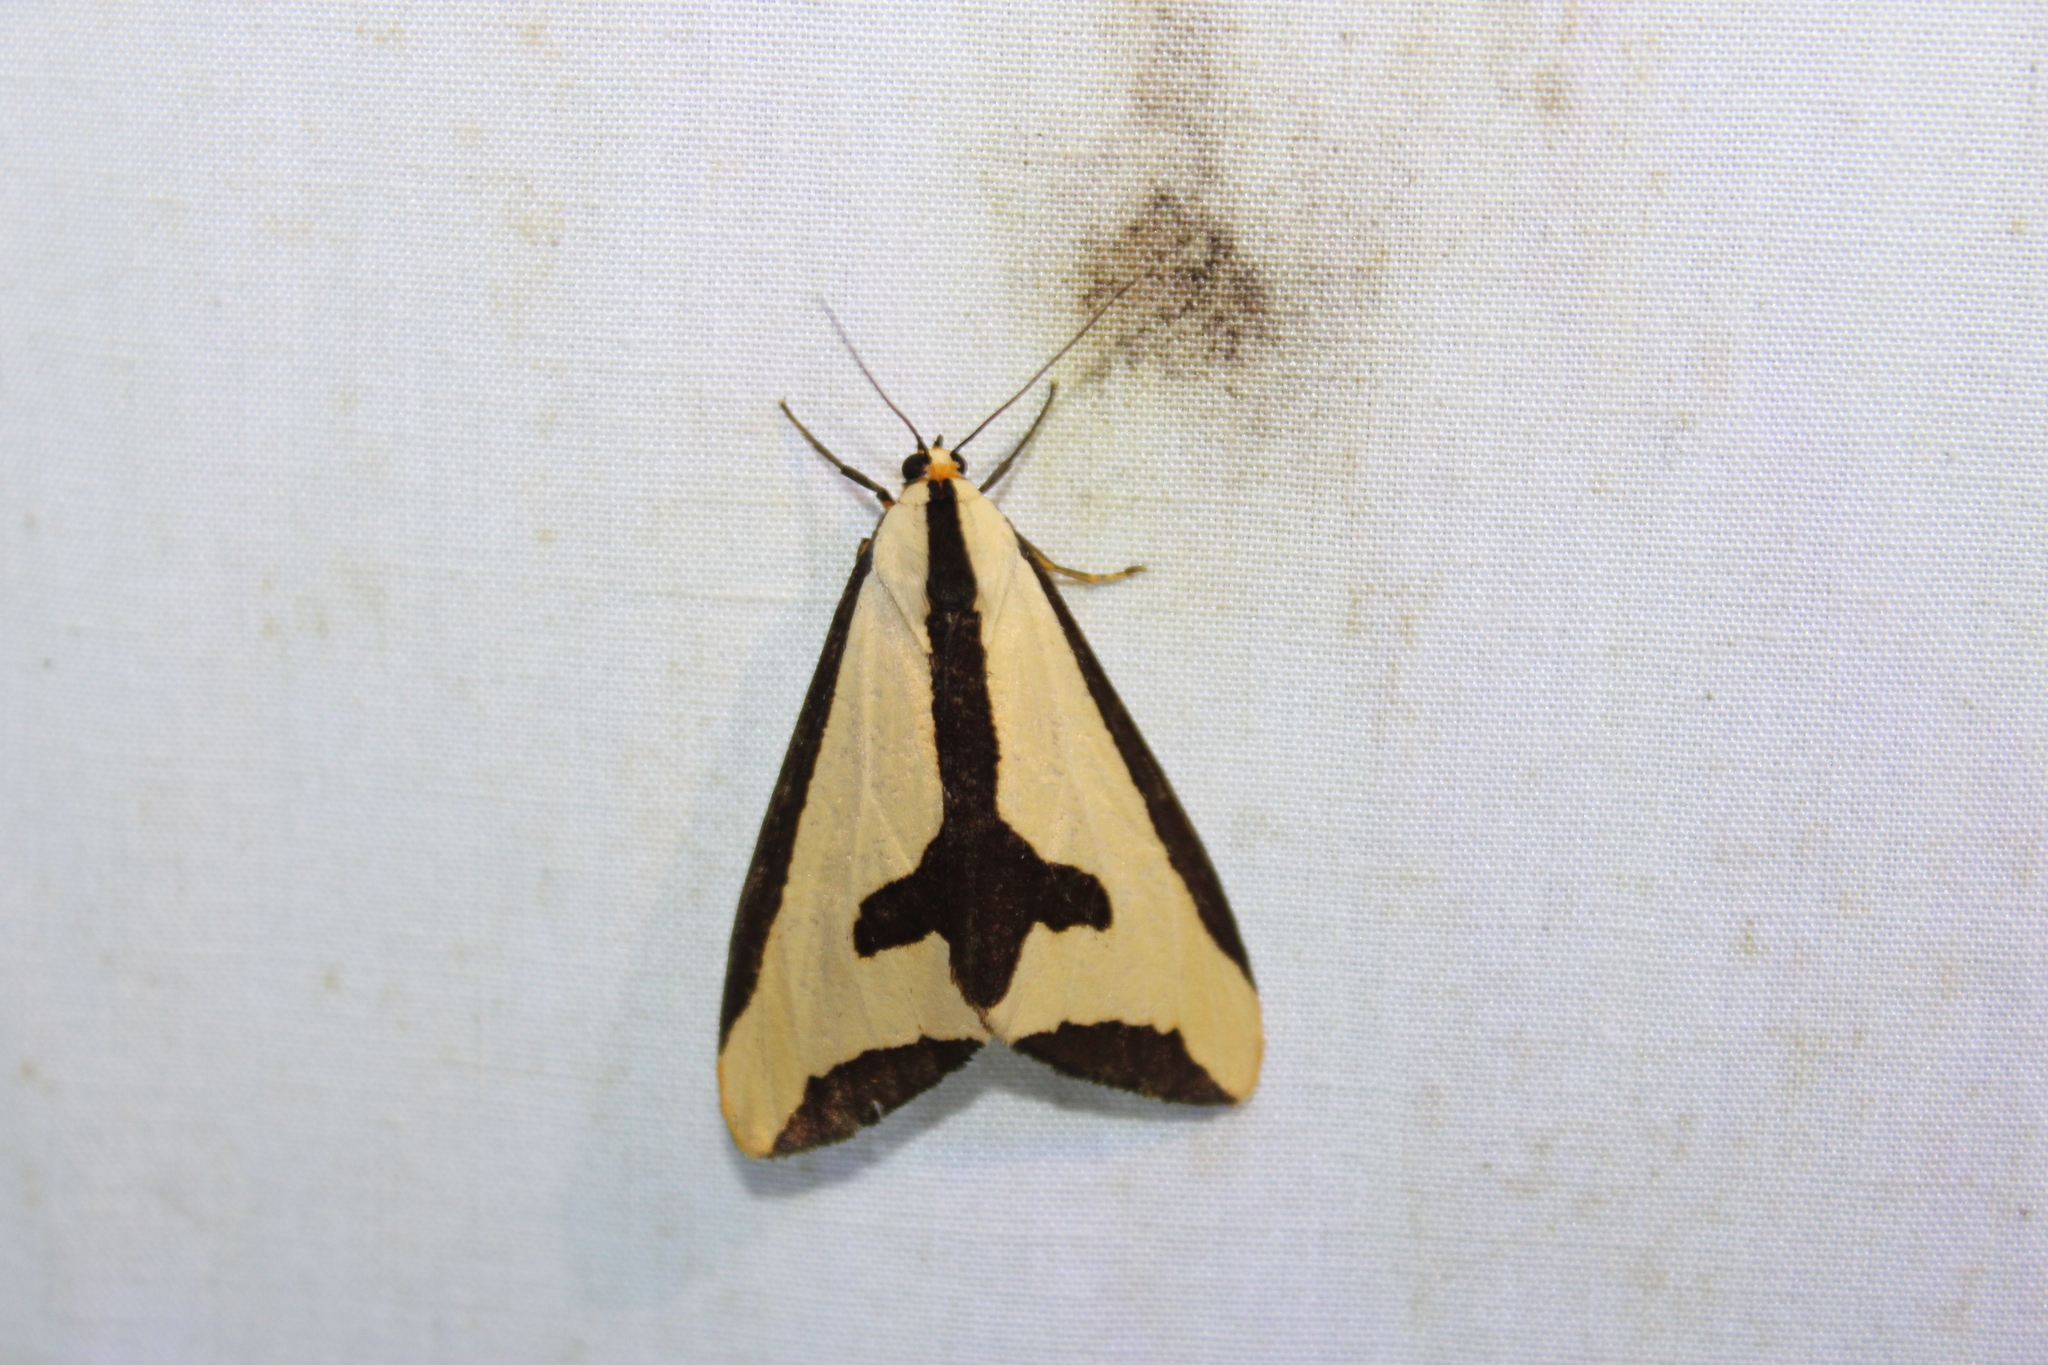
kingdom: Animalia
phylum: Arthropoda
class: Insecta
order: Lepidoptera
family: Erebidae
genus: Haploa
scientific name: Haploa clymene
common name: Clymene moth
